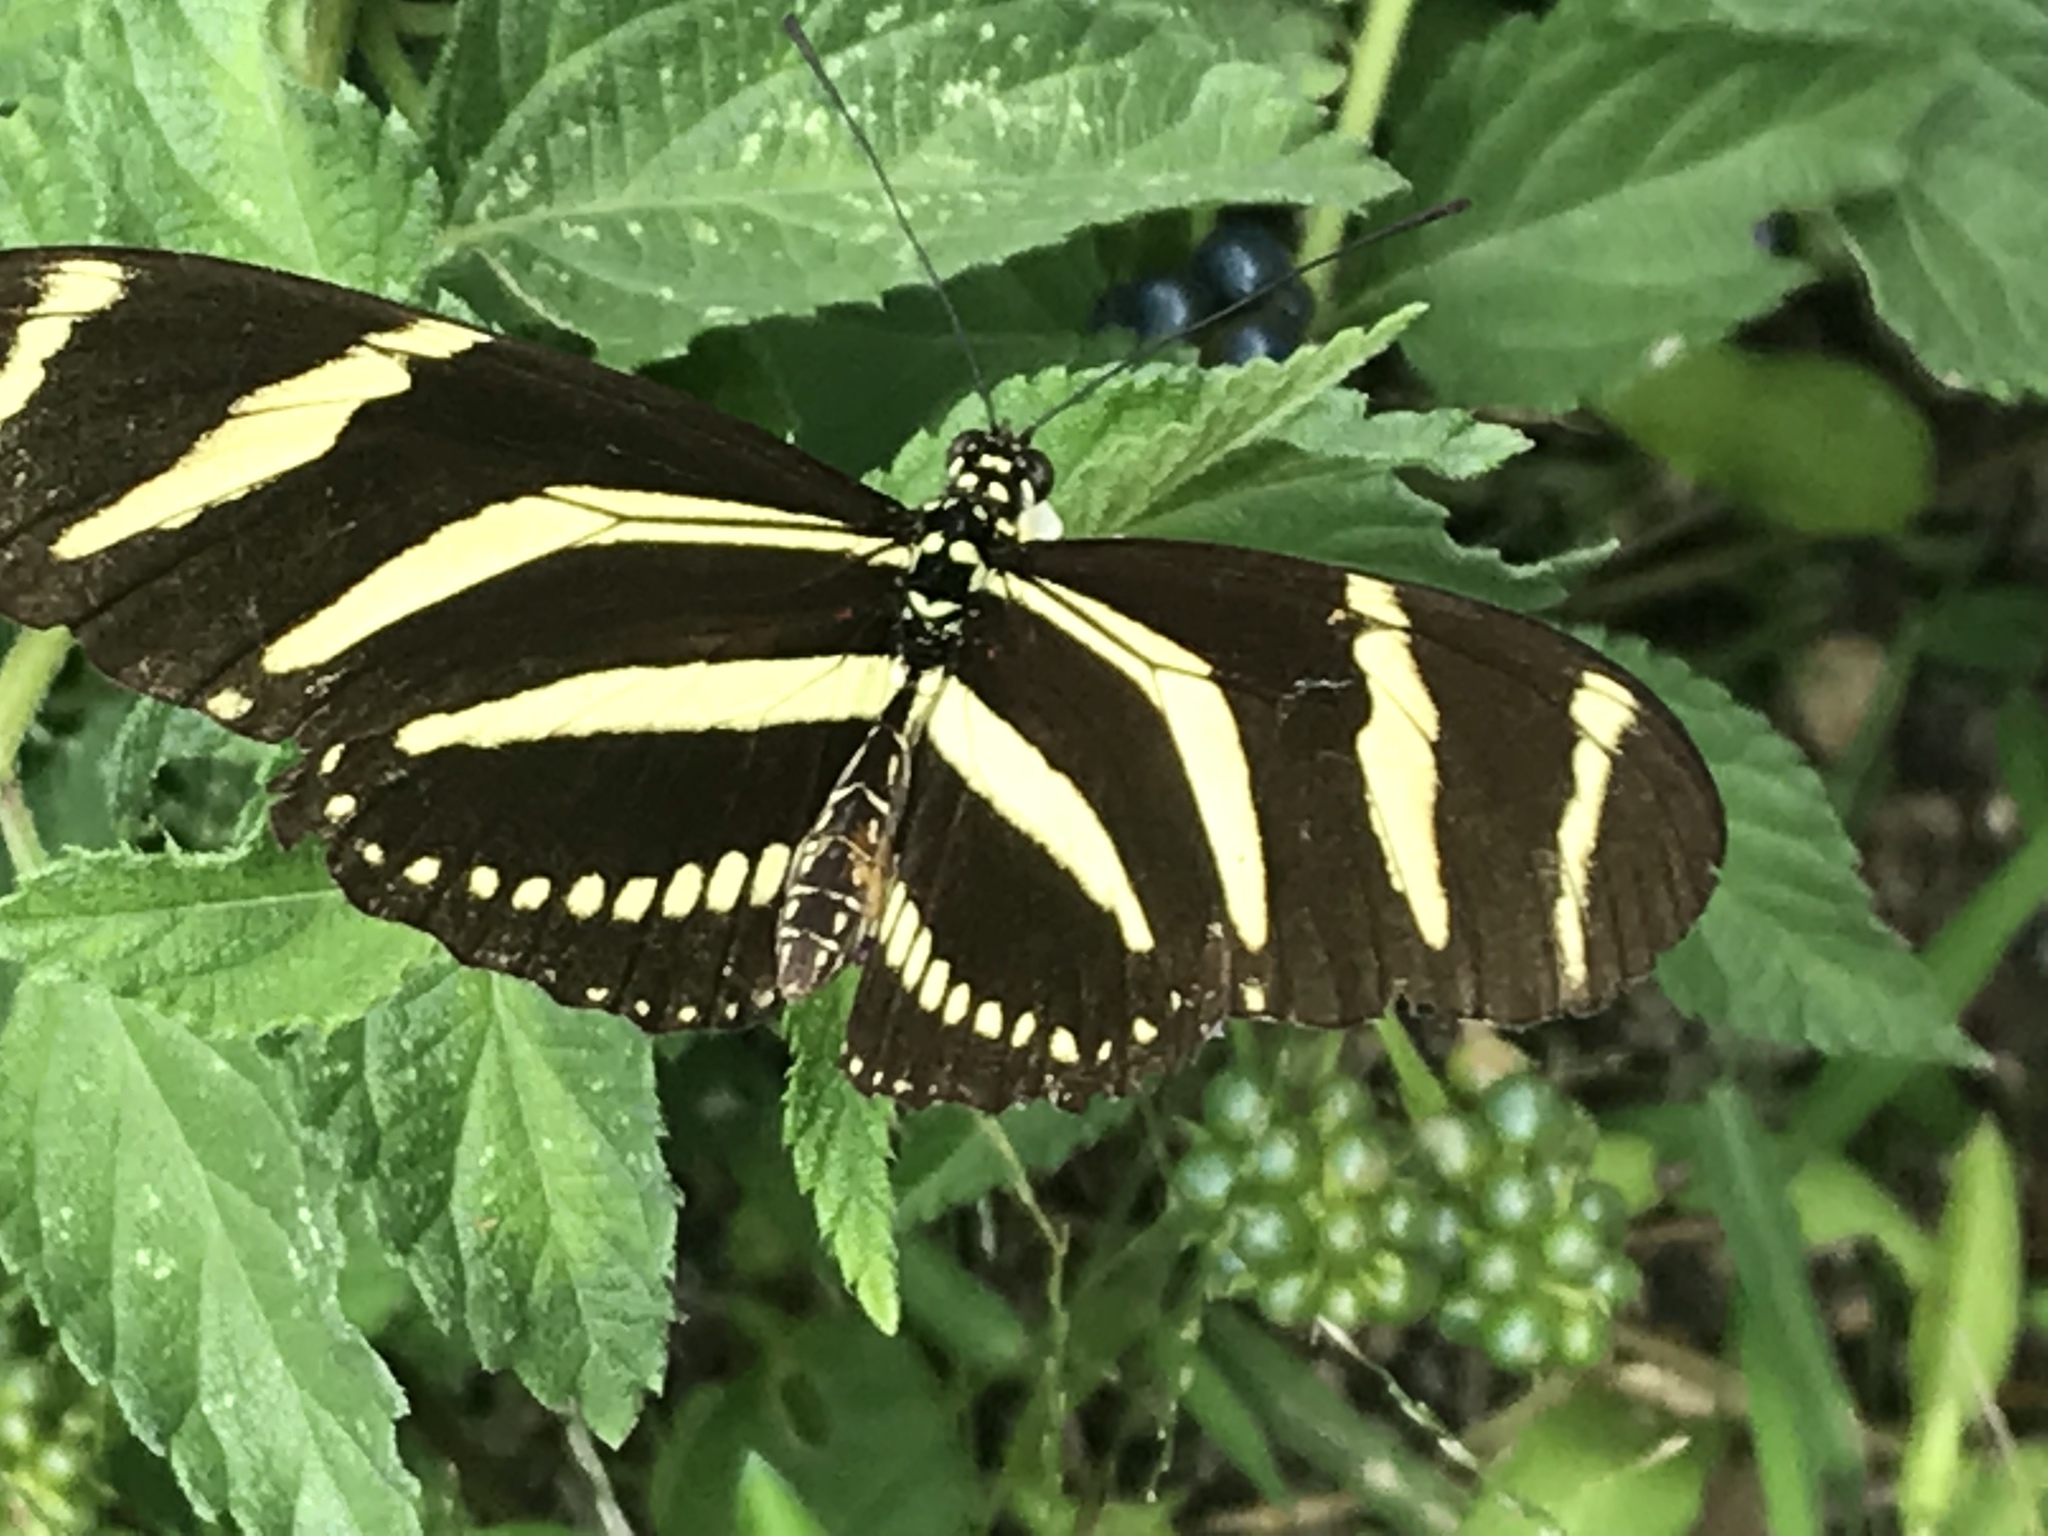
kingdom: Animalia
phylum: Arthropoda
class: Insecta
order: Lepidoptera
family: Nymphalidae
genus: Heliconius
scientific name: Heliconius charithonia
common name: Zebra long wing
